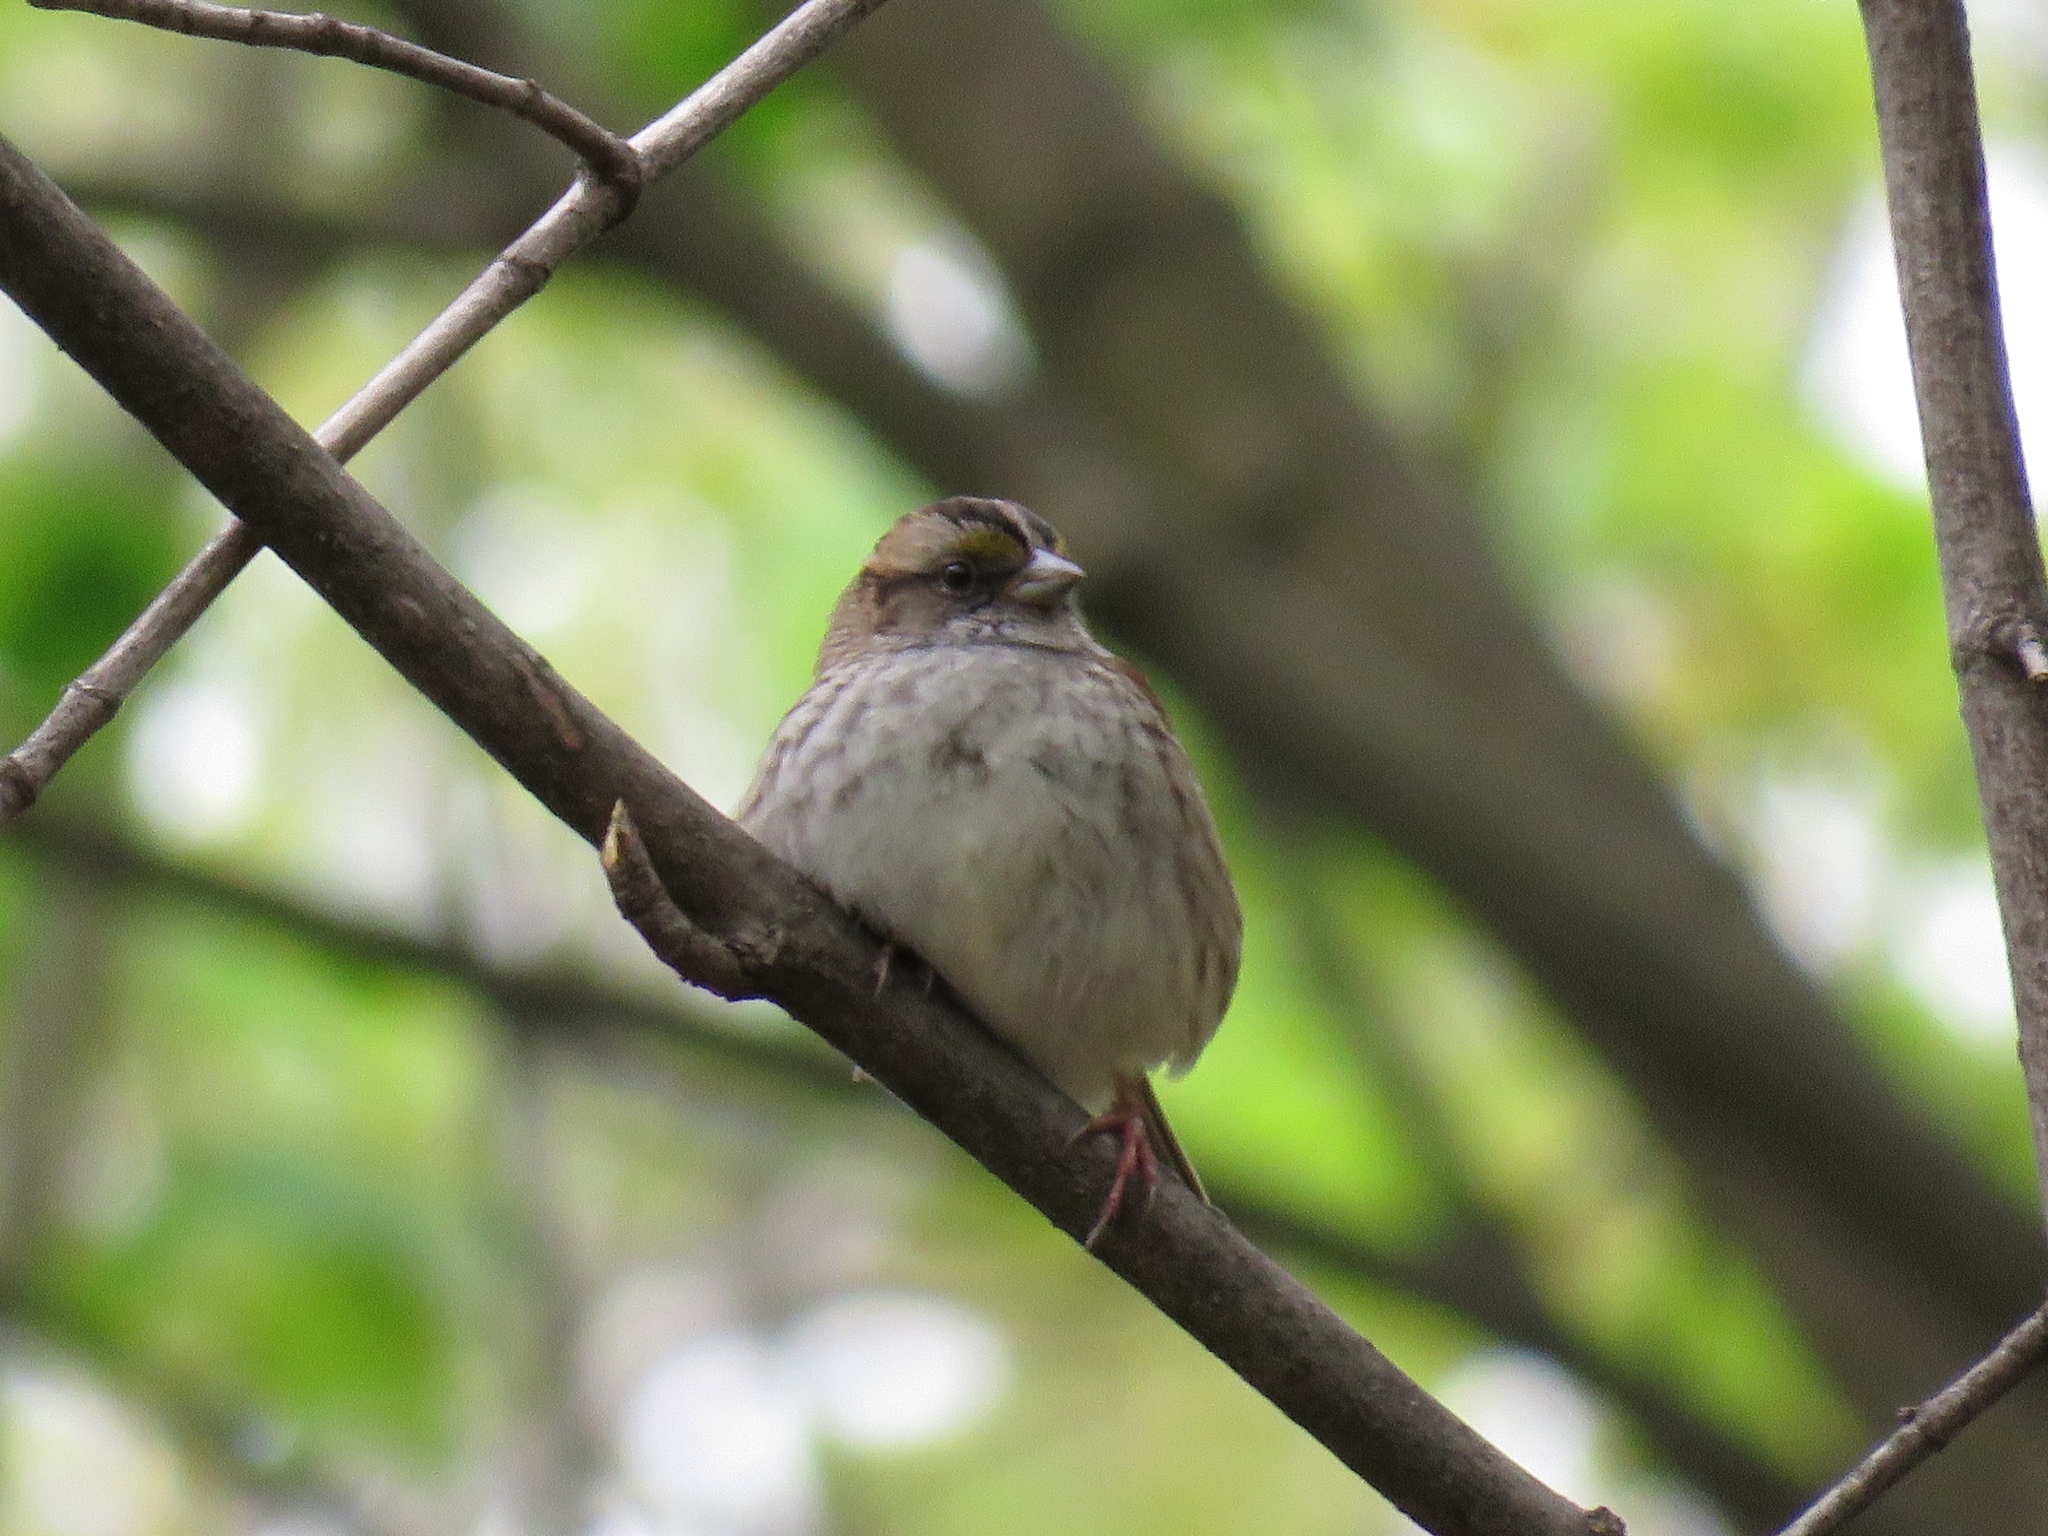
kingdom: Animalia
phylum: Chordata
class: Aves
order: Passeriformes
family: Passerellidae
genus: Zonotrichia
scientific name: Zonotrichia albicollis
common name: White-throated sparrow
